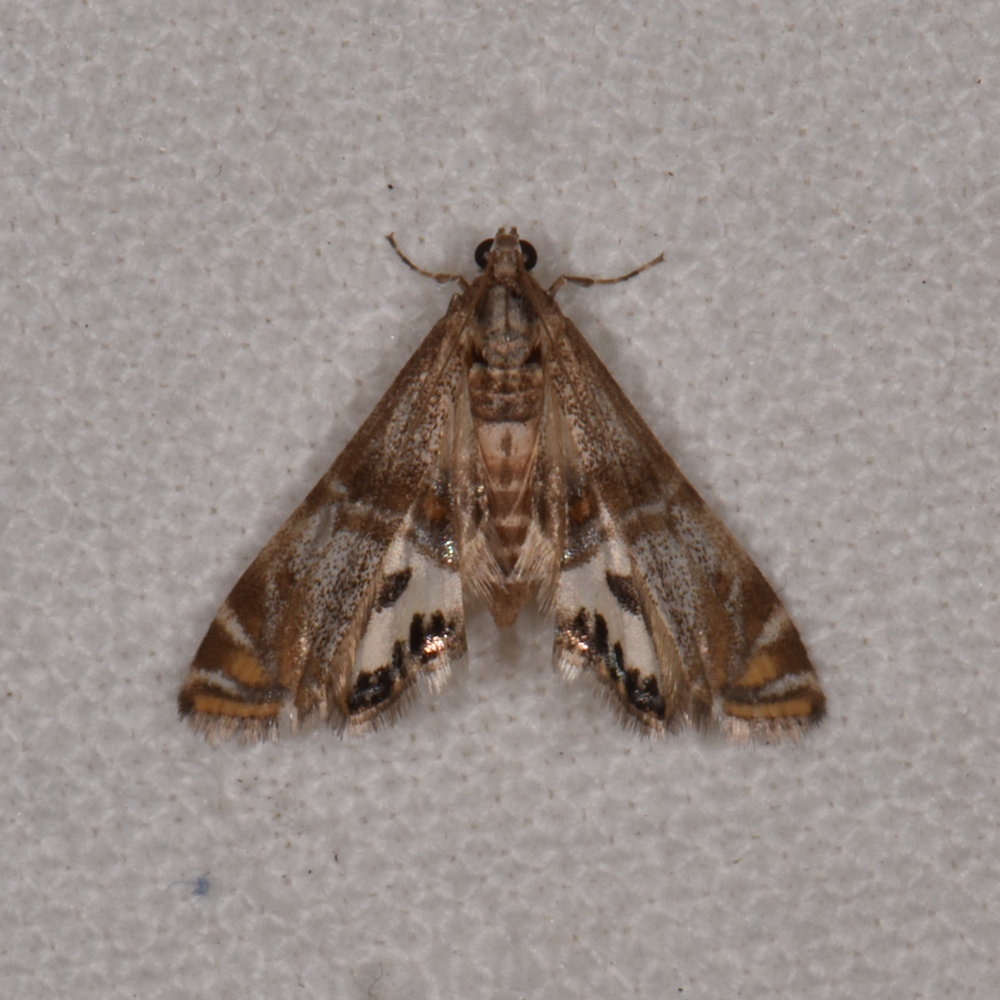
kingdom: Animalia
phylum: Arthropoda
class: Insecta
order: Lepidoptera
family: Crambidae
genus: Petrophila
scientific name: Petrophila bifascialis
